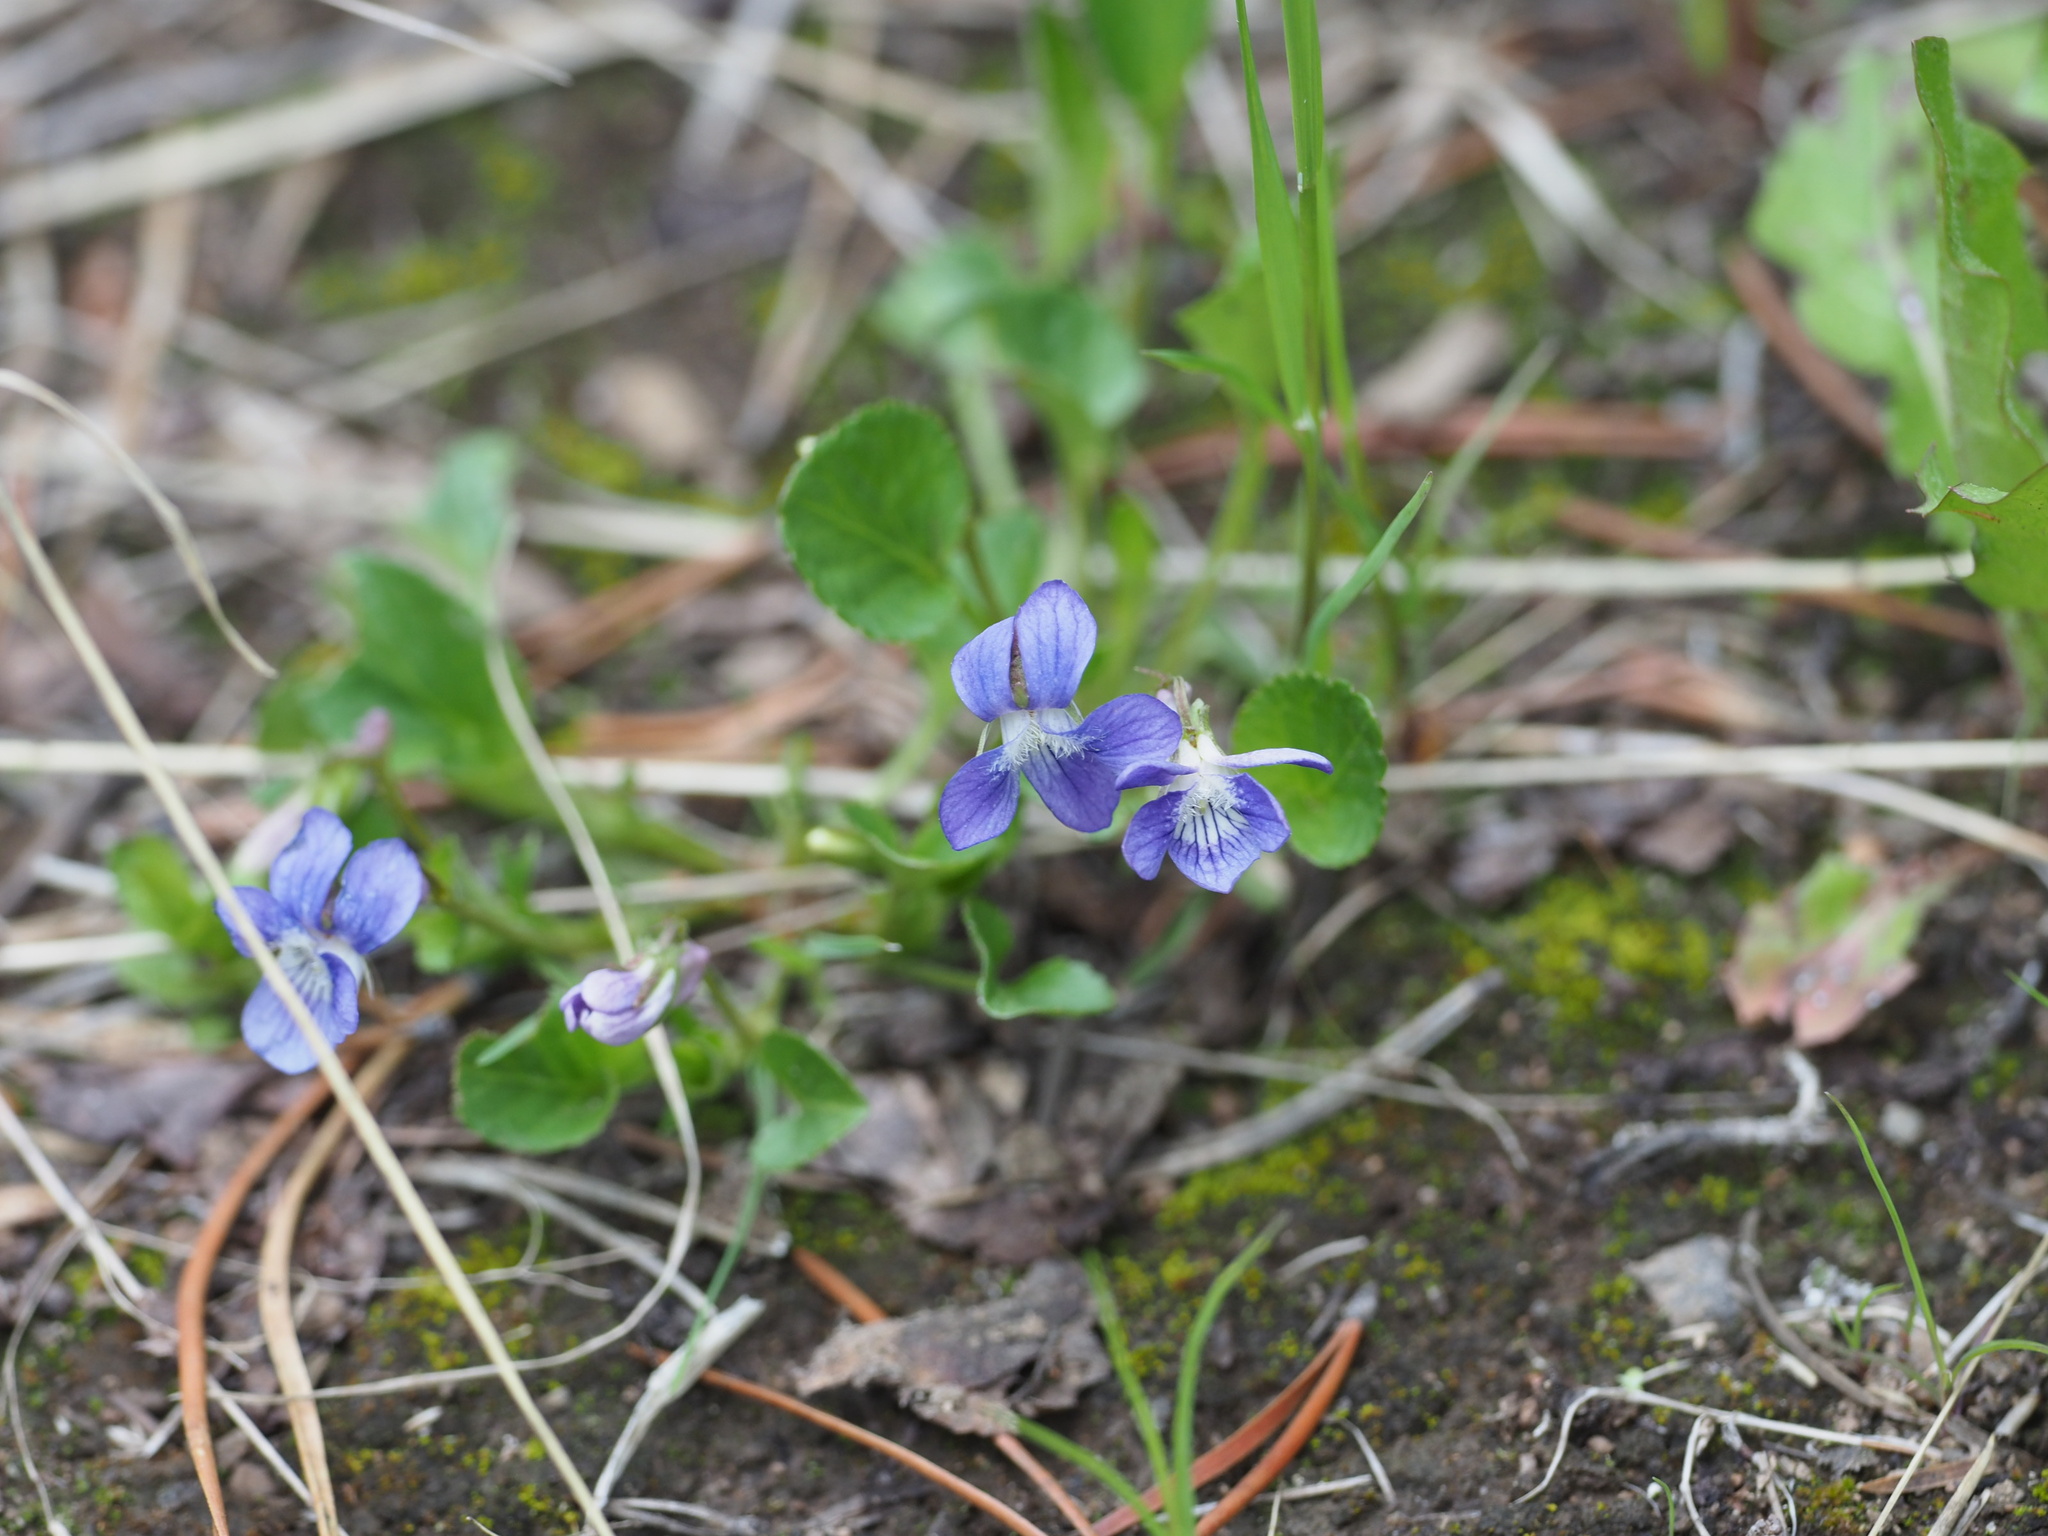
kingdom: Plantae
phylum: Tracheophyta
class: Magnoliopsida
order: Malpighiales
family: Violaceae
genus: Viola
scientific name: Viola adunca
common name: Sand violet
